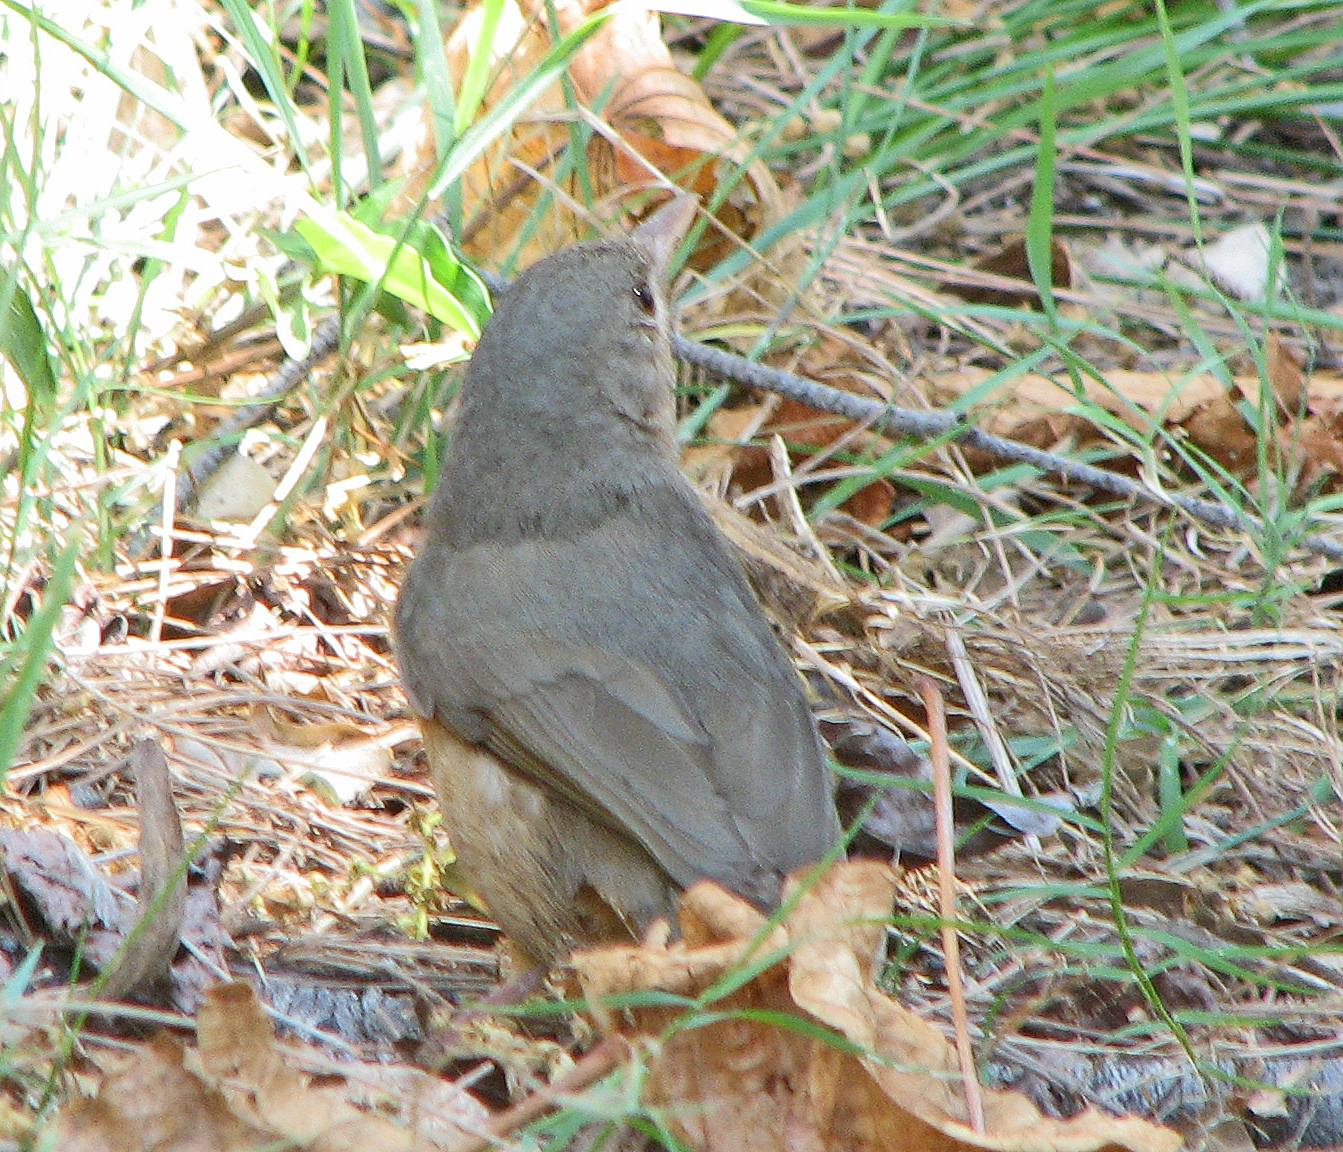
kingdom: Animalia
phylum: Chordata
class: Aves
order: Passeriformes
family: Pachycephalidae
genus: Colluricincla
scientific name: Colluricincla rufogaster
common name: Rufous shrikethrush
